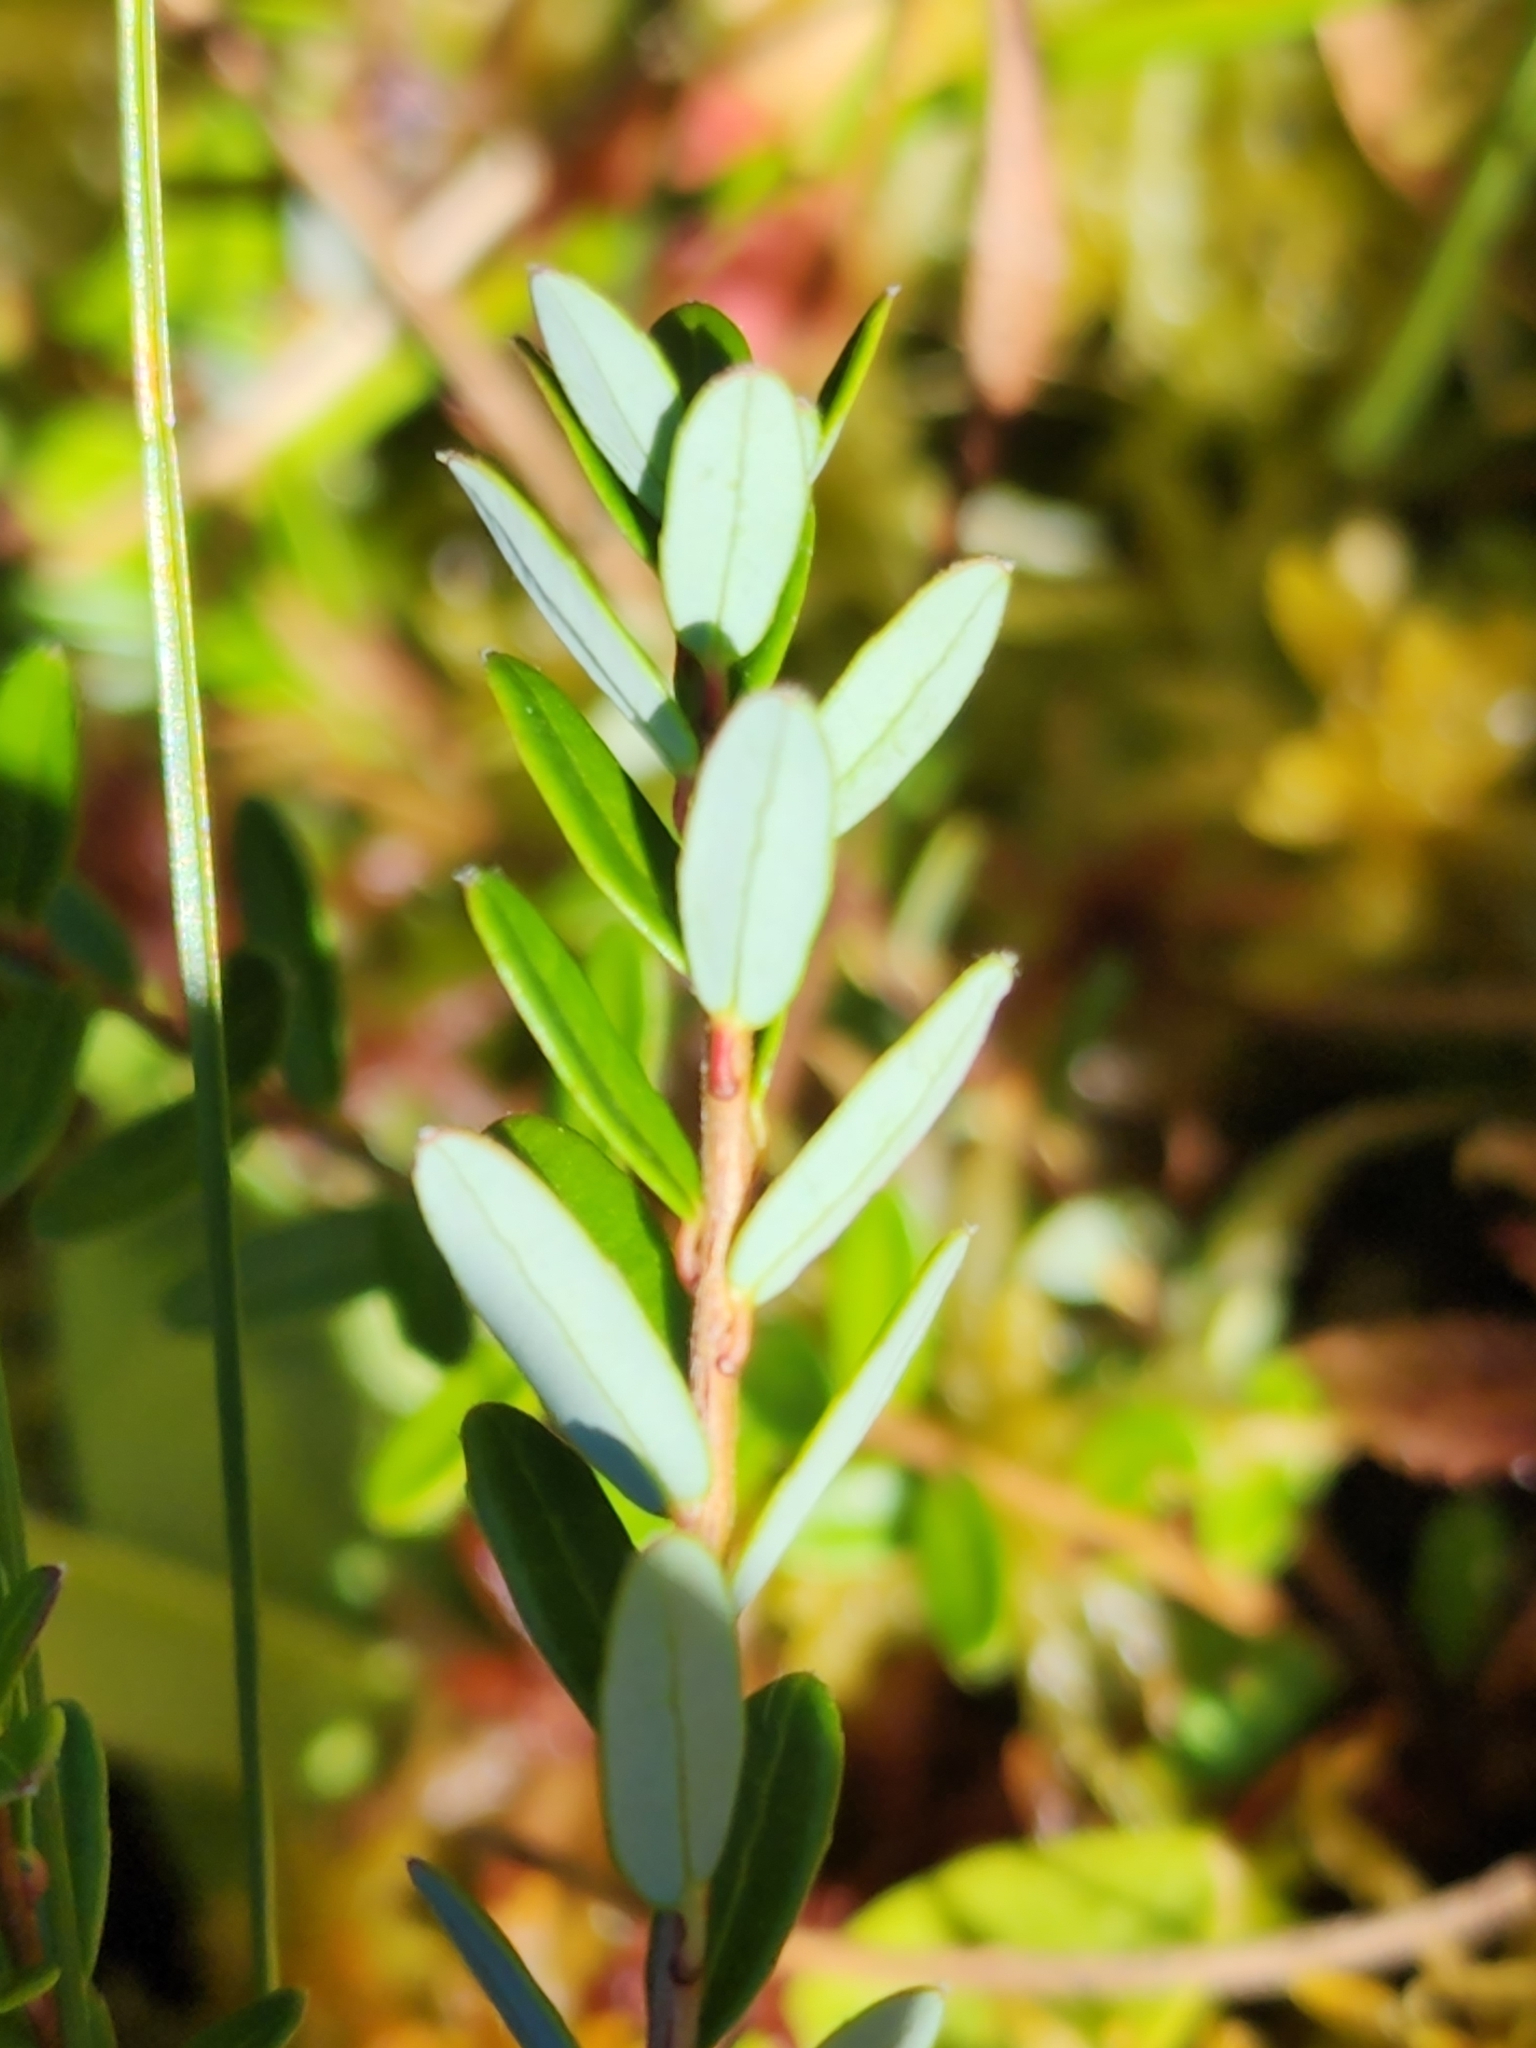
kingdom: Plantae
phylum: Tracheophyta
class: Magnoliopsida
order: Ericales
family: Ericaceae
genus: Vaccinium
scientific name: Vaccinium macrocarpon
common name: American cranberry
